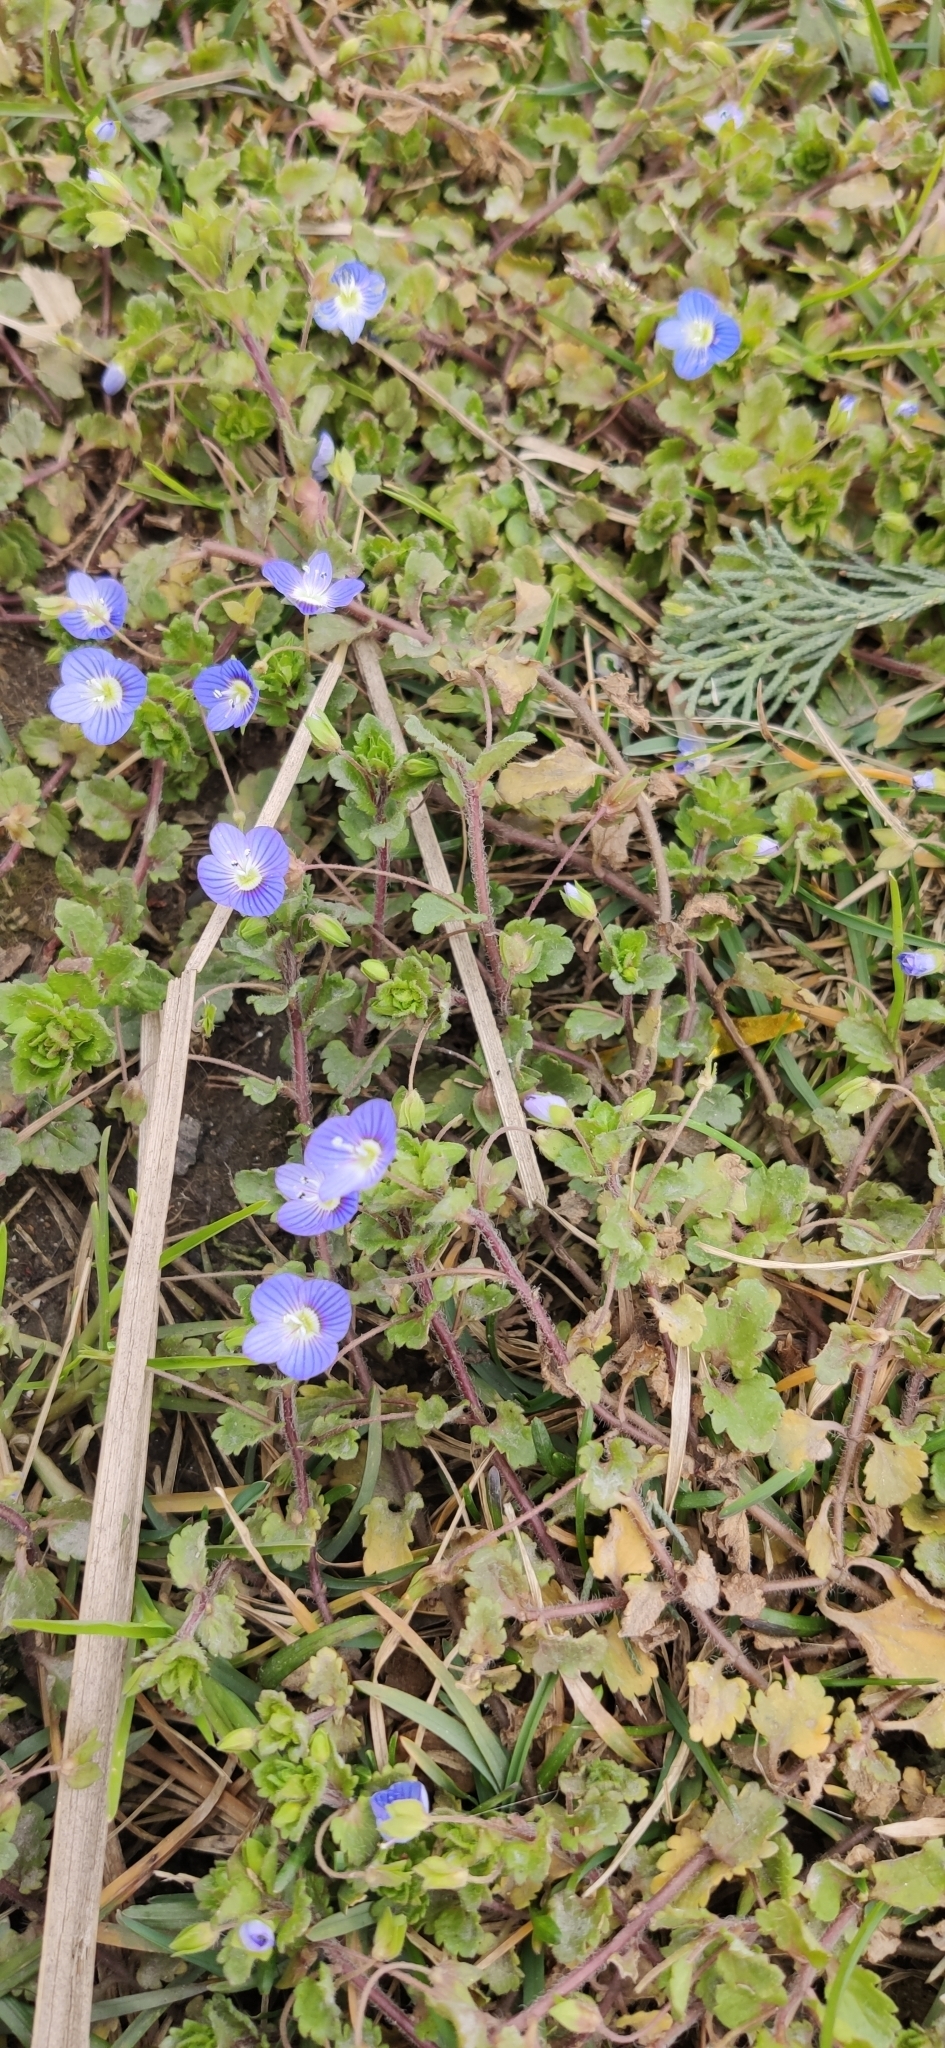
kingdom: Plantae
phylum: Tracheophyta
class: Magnoliopsida
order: Lamiales
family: Plantaginaceae
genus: Veronica
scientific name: Veronica persica
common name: Common field-speedwell
